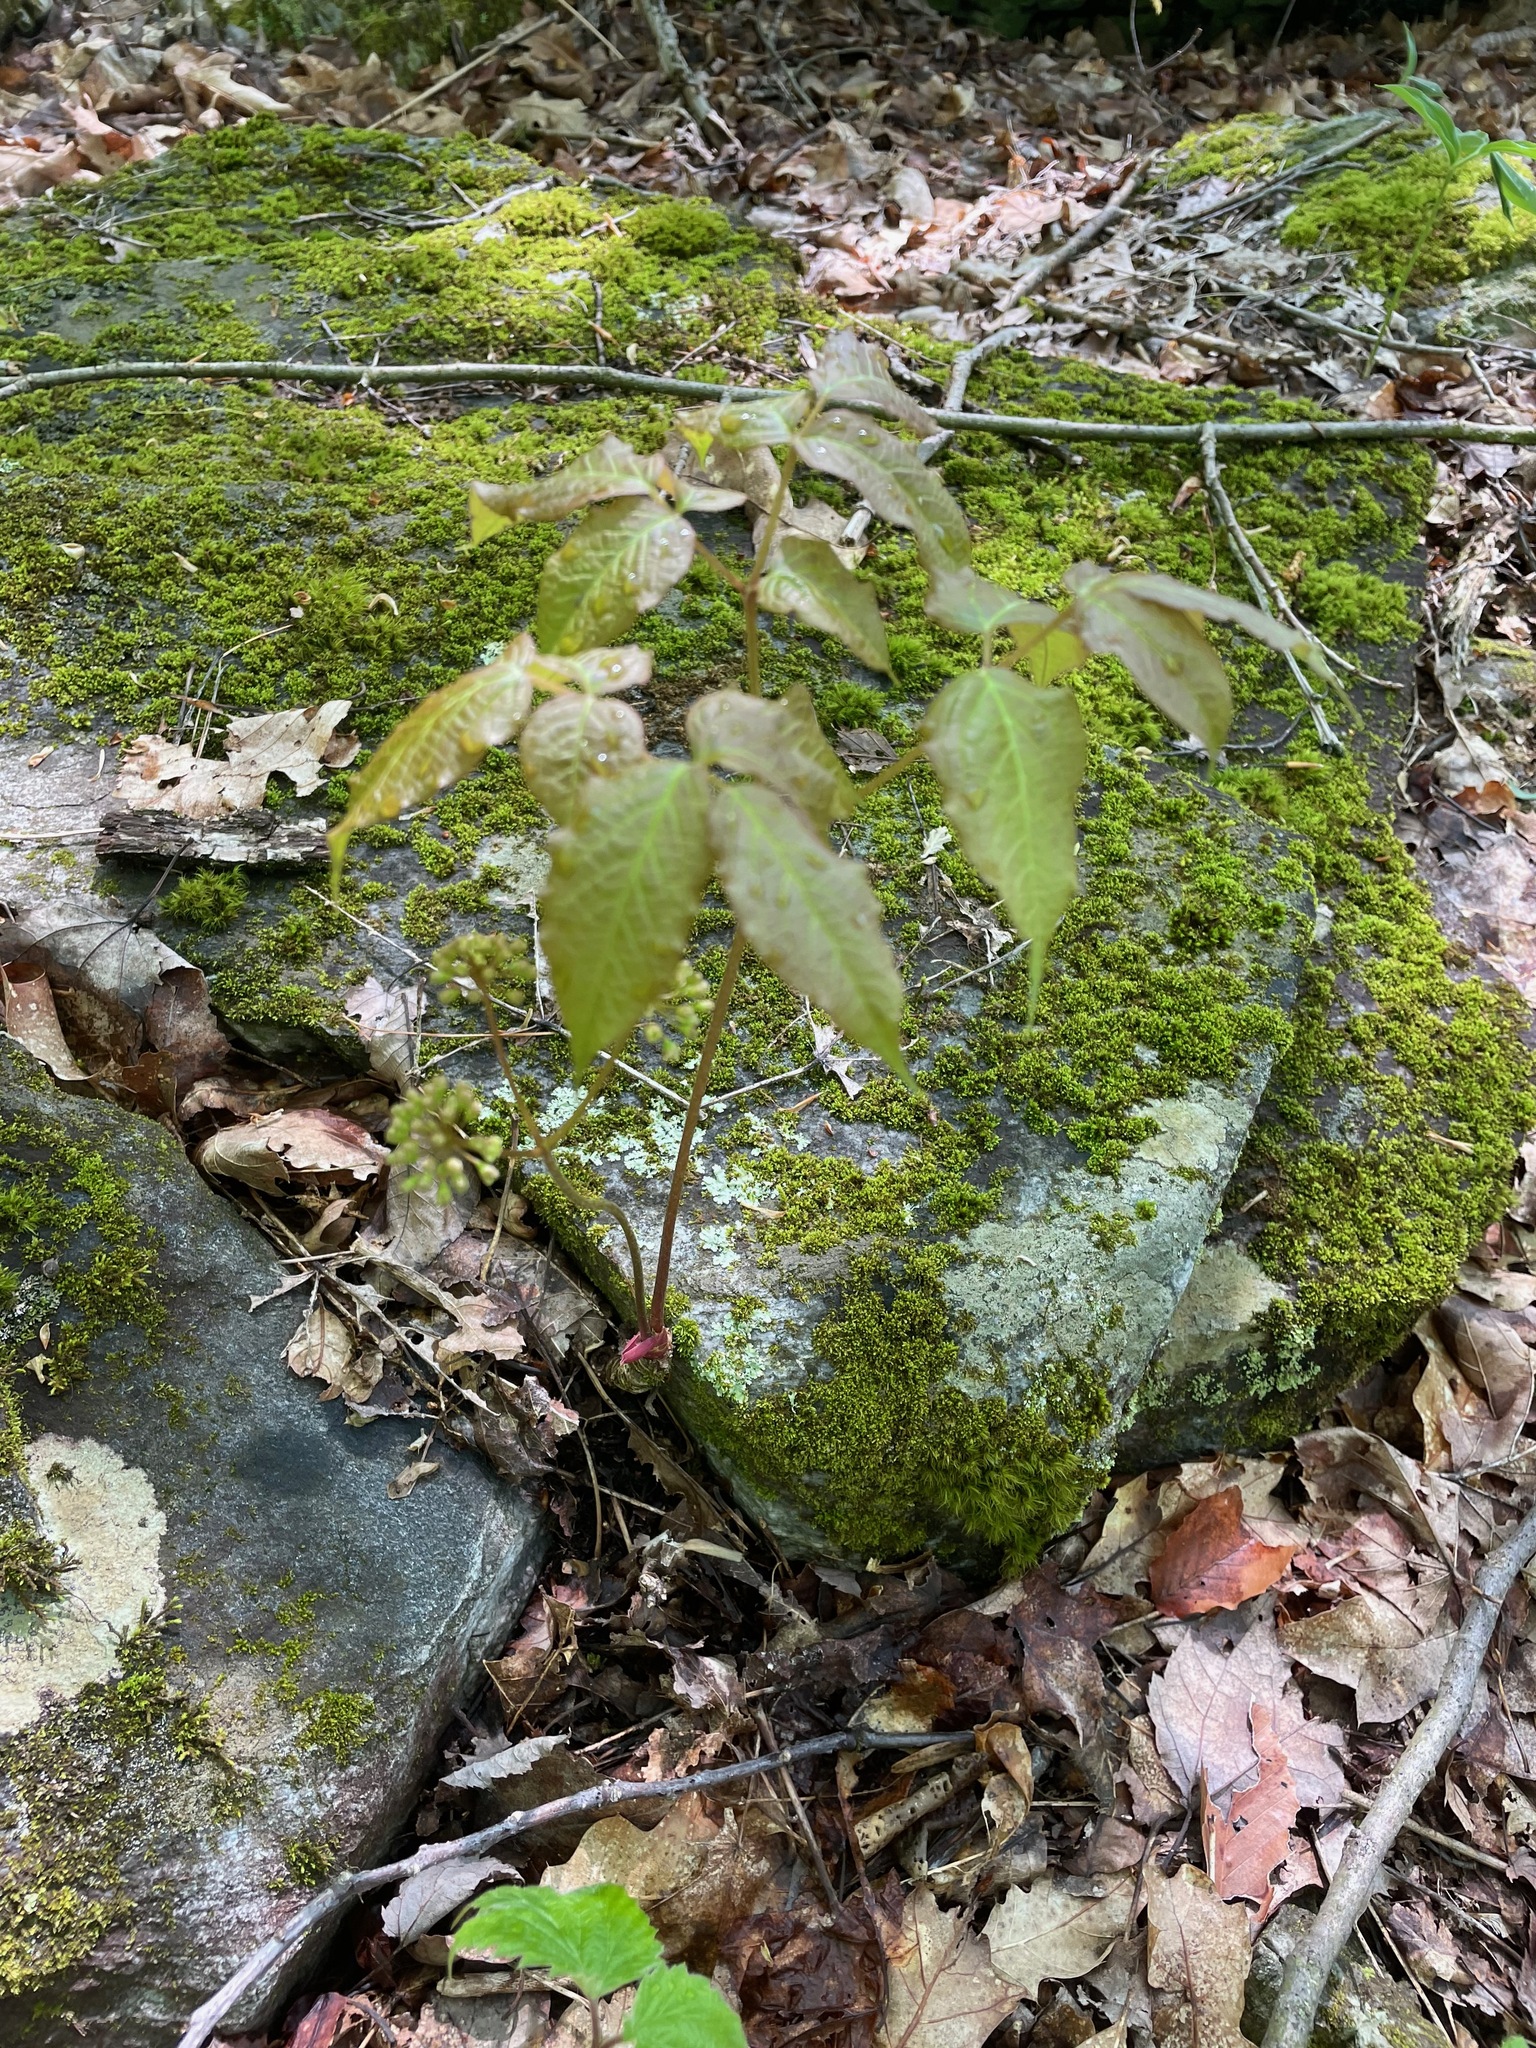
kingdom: Plantae
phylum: Tracheophyta
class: Magnoliopsida
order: Apiales
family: Araliaceae
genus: Aralia
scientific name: Aralia nudicaulis
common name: Wild sarsaparilla
